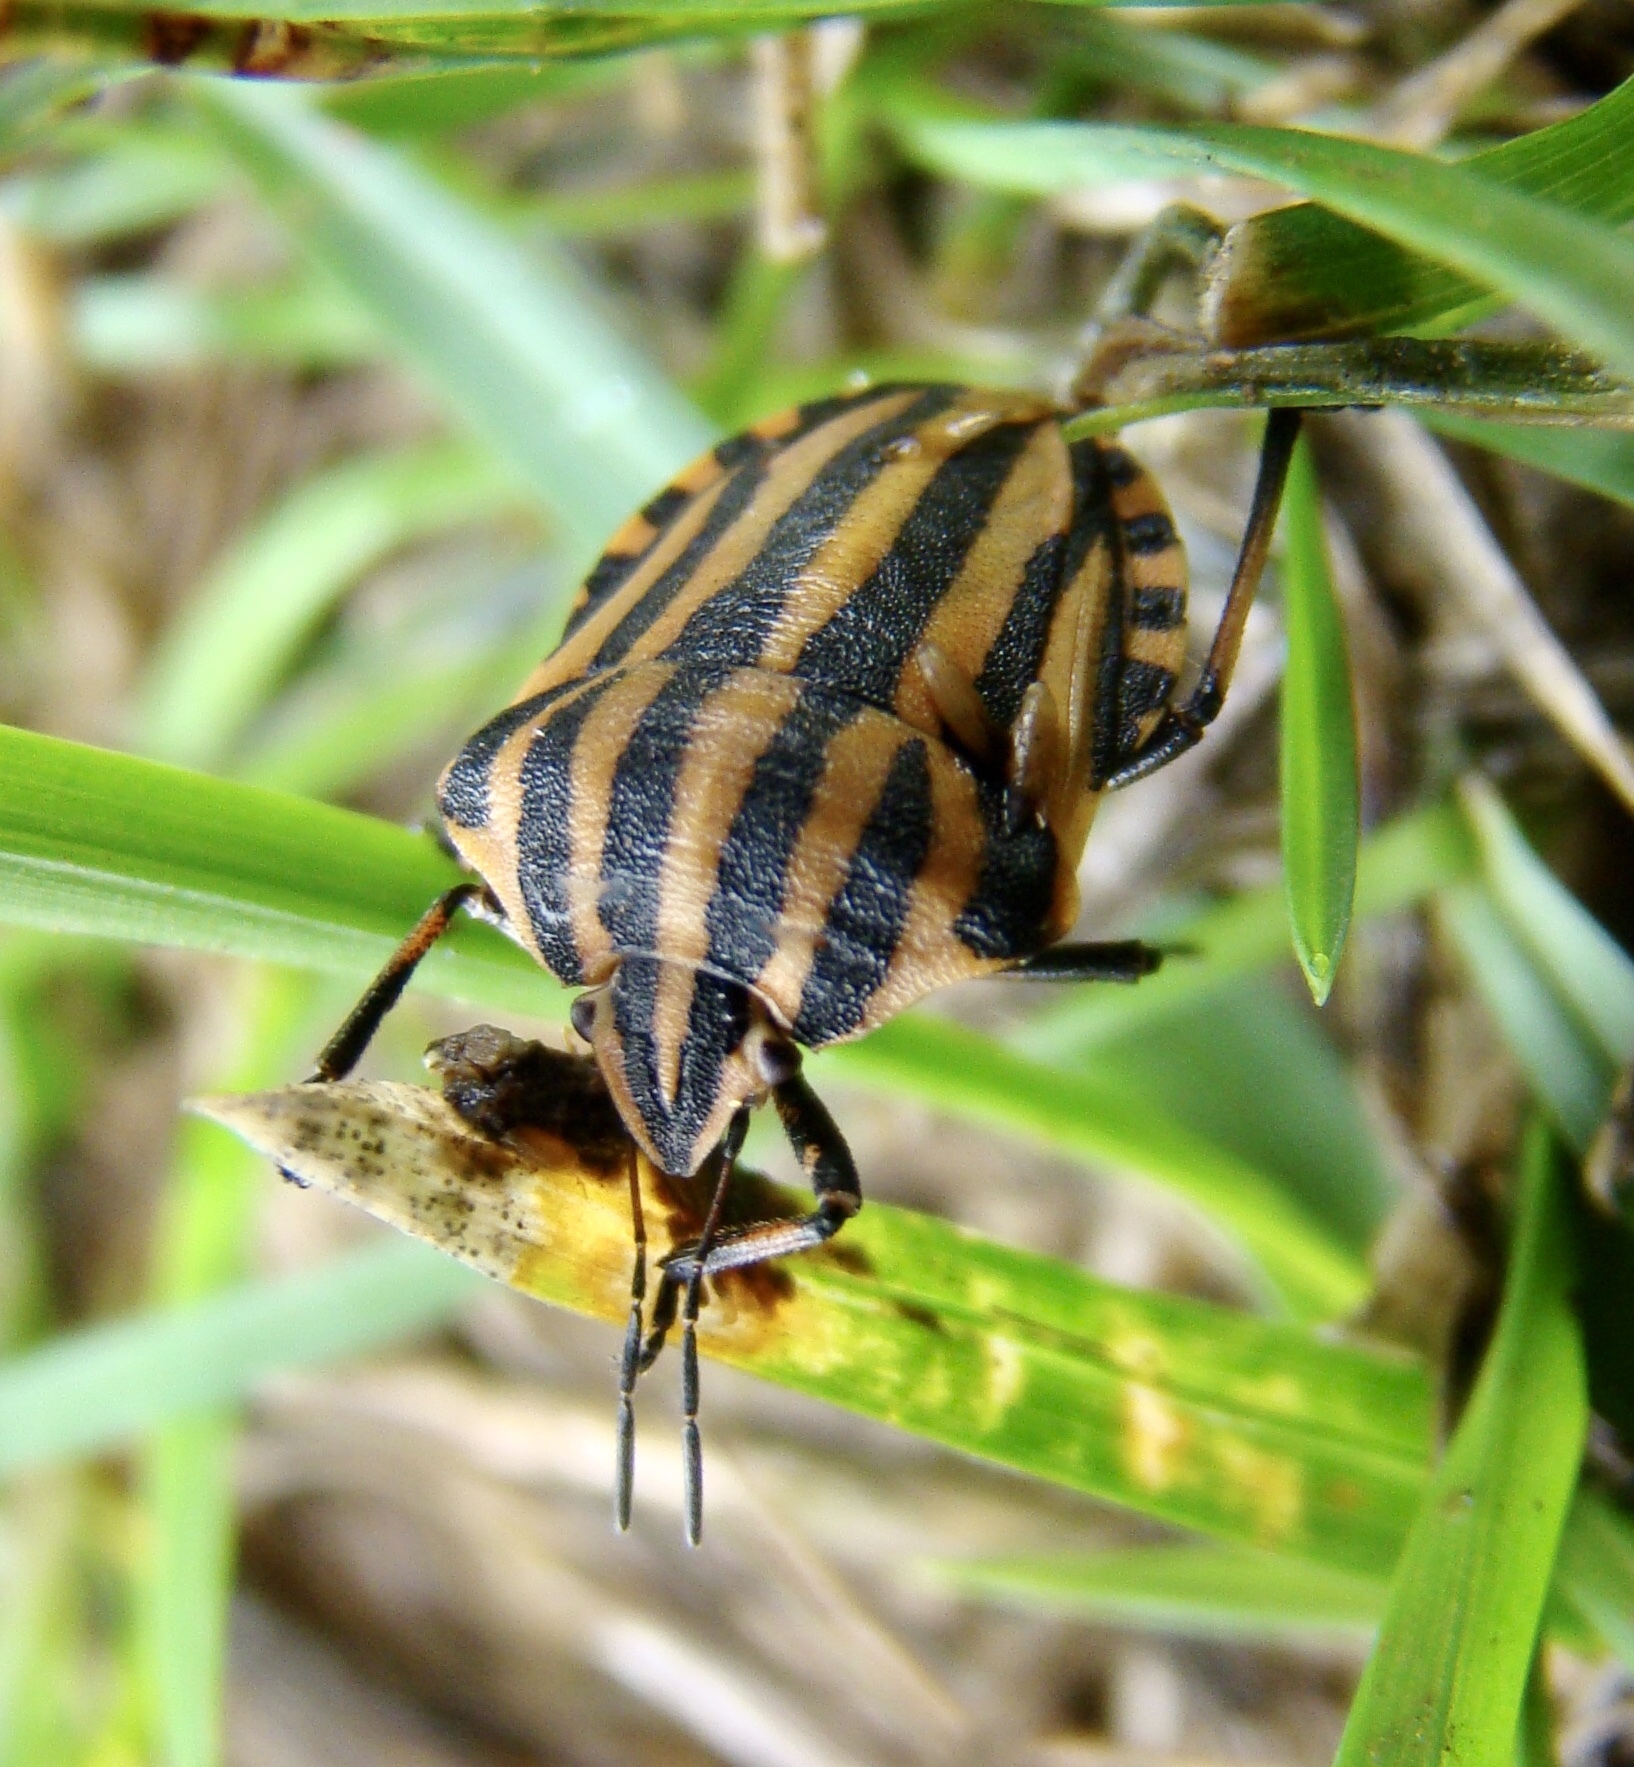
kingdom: Animalia
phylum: Arthropoda
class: Insecta
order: Hemiptera
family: Pentatomidae
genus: Graphosoma
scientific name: Graphosoma italicum
